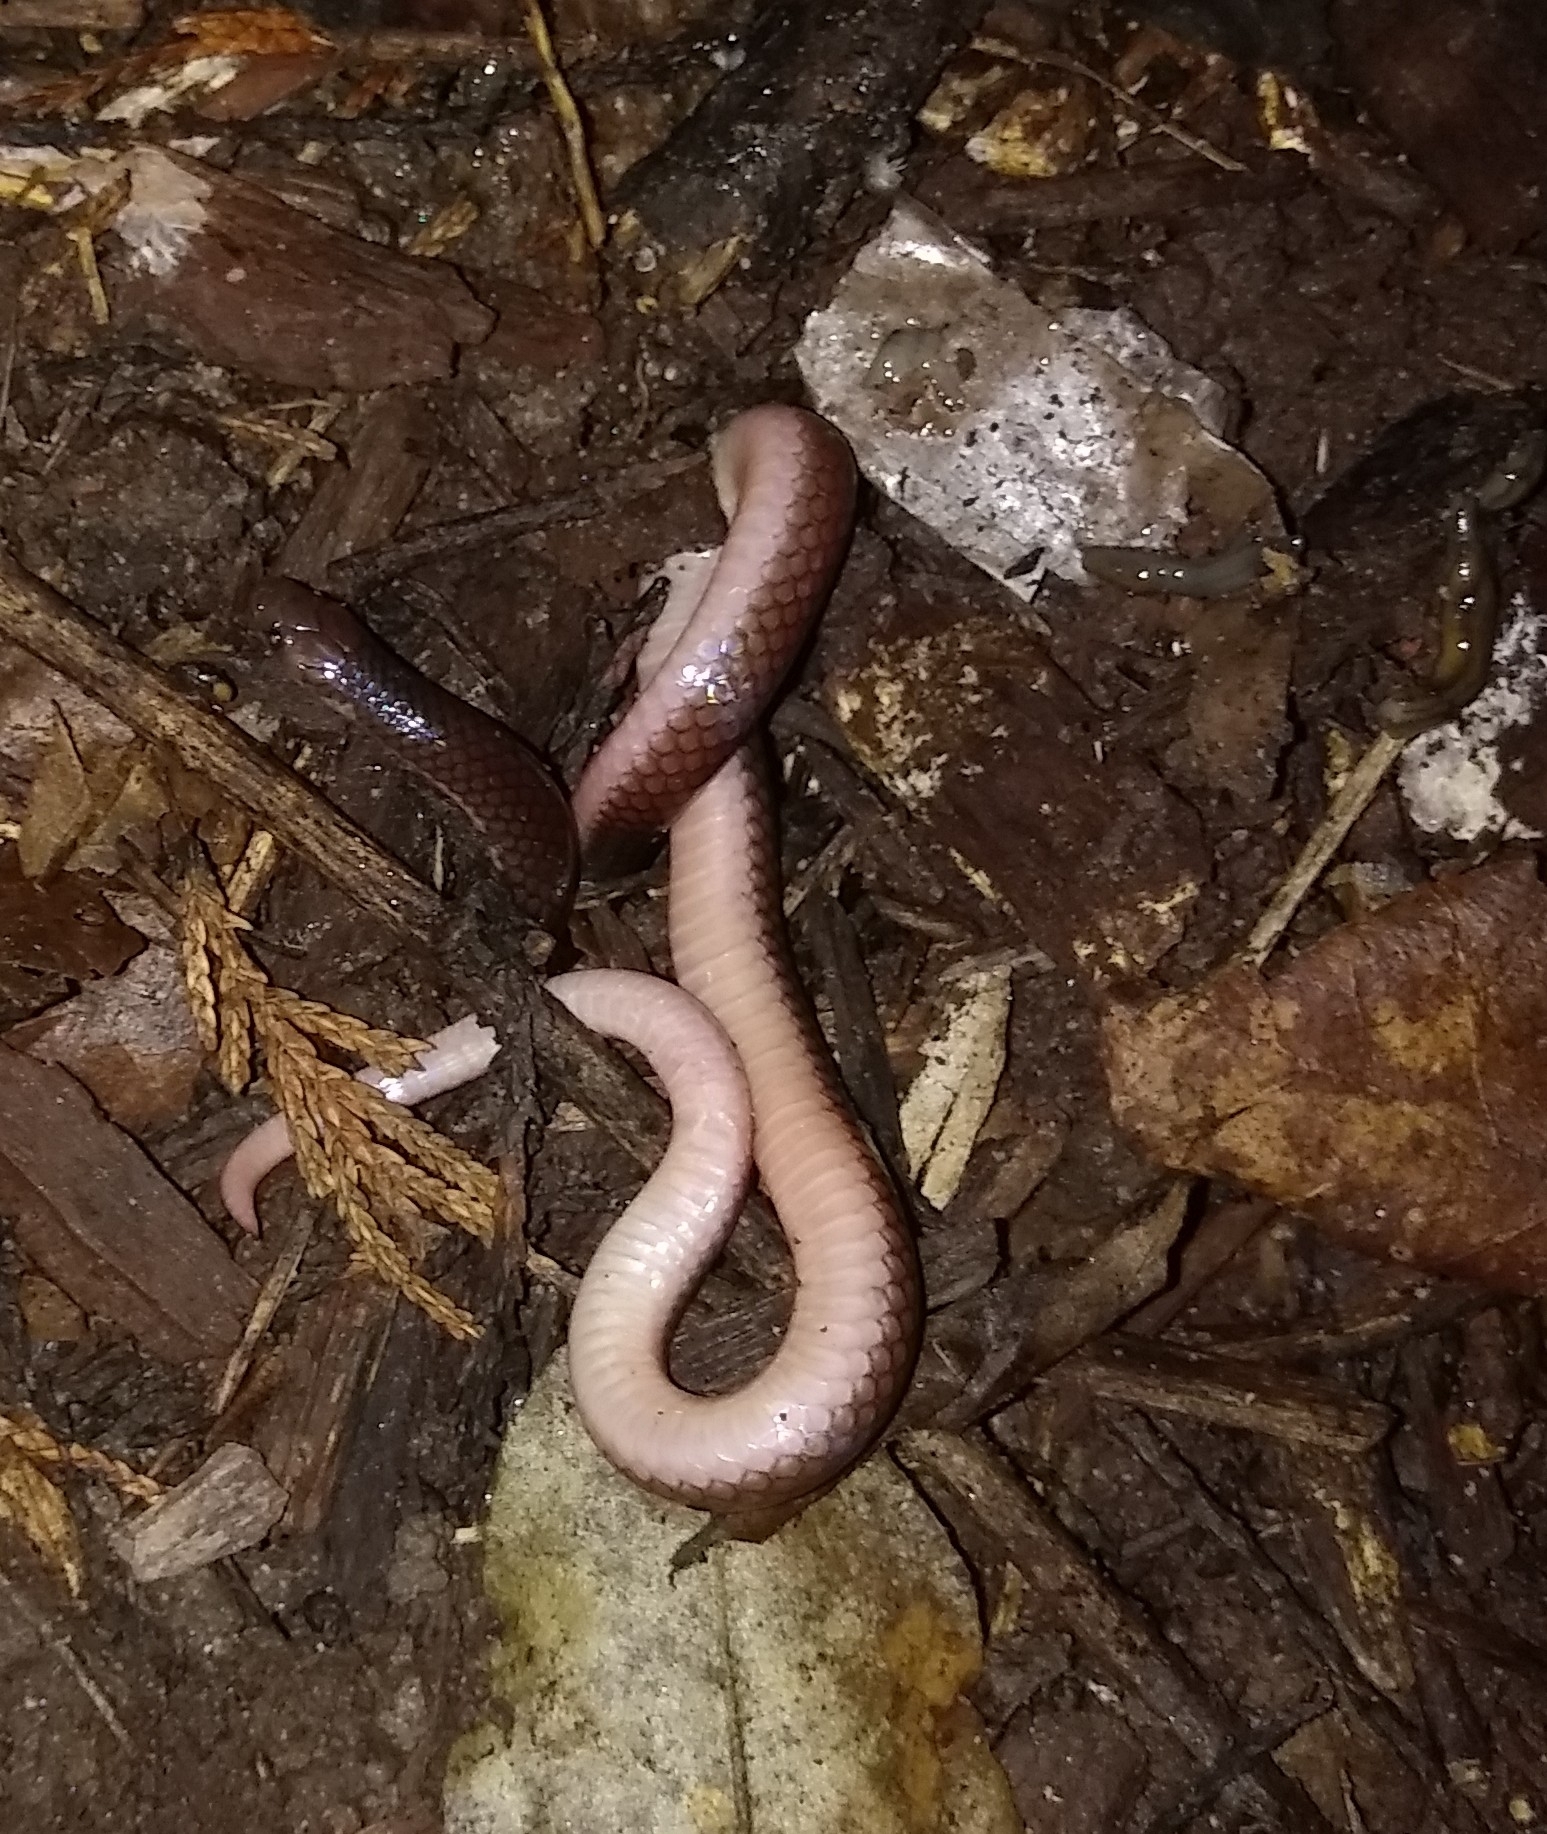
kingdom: Animalia
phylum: Chordata
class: Squamata
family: Colubridae
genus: Carphophis
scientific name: Carphophis amoenus
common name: Eastern worm snake
